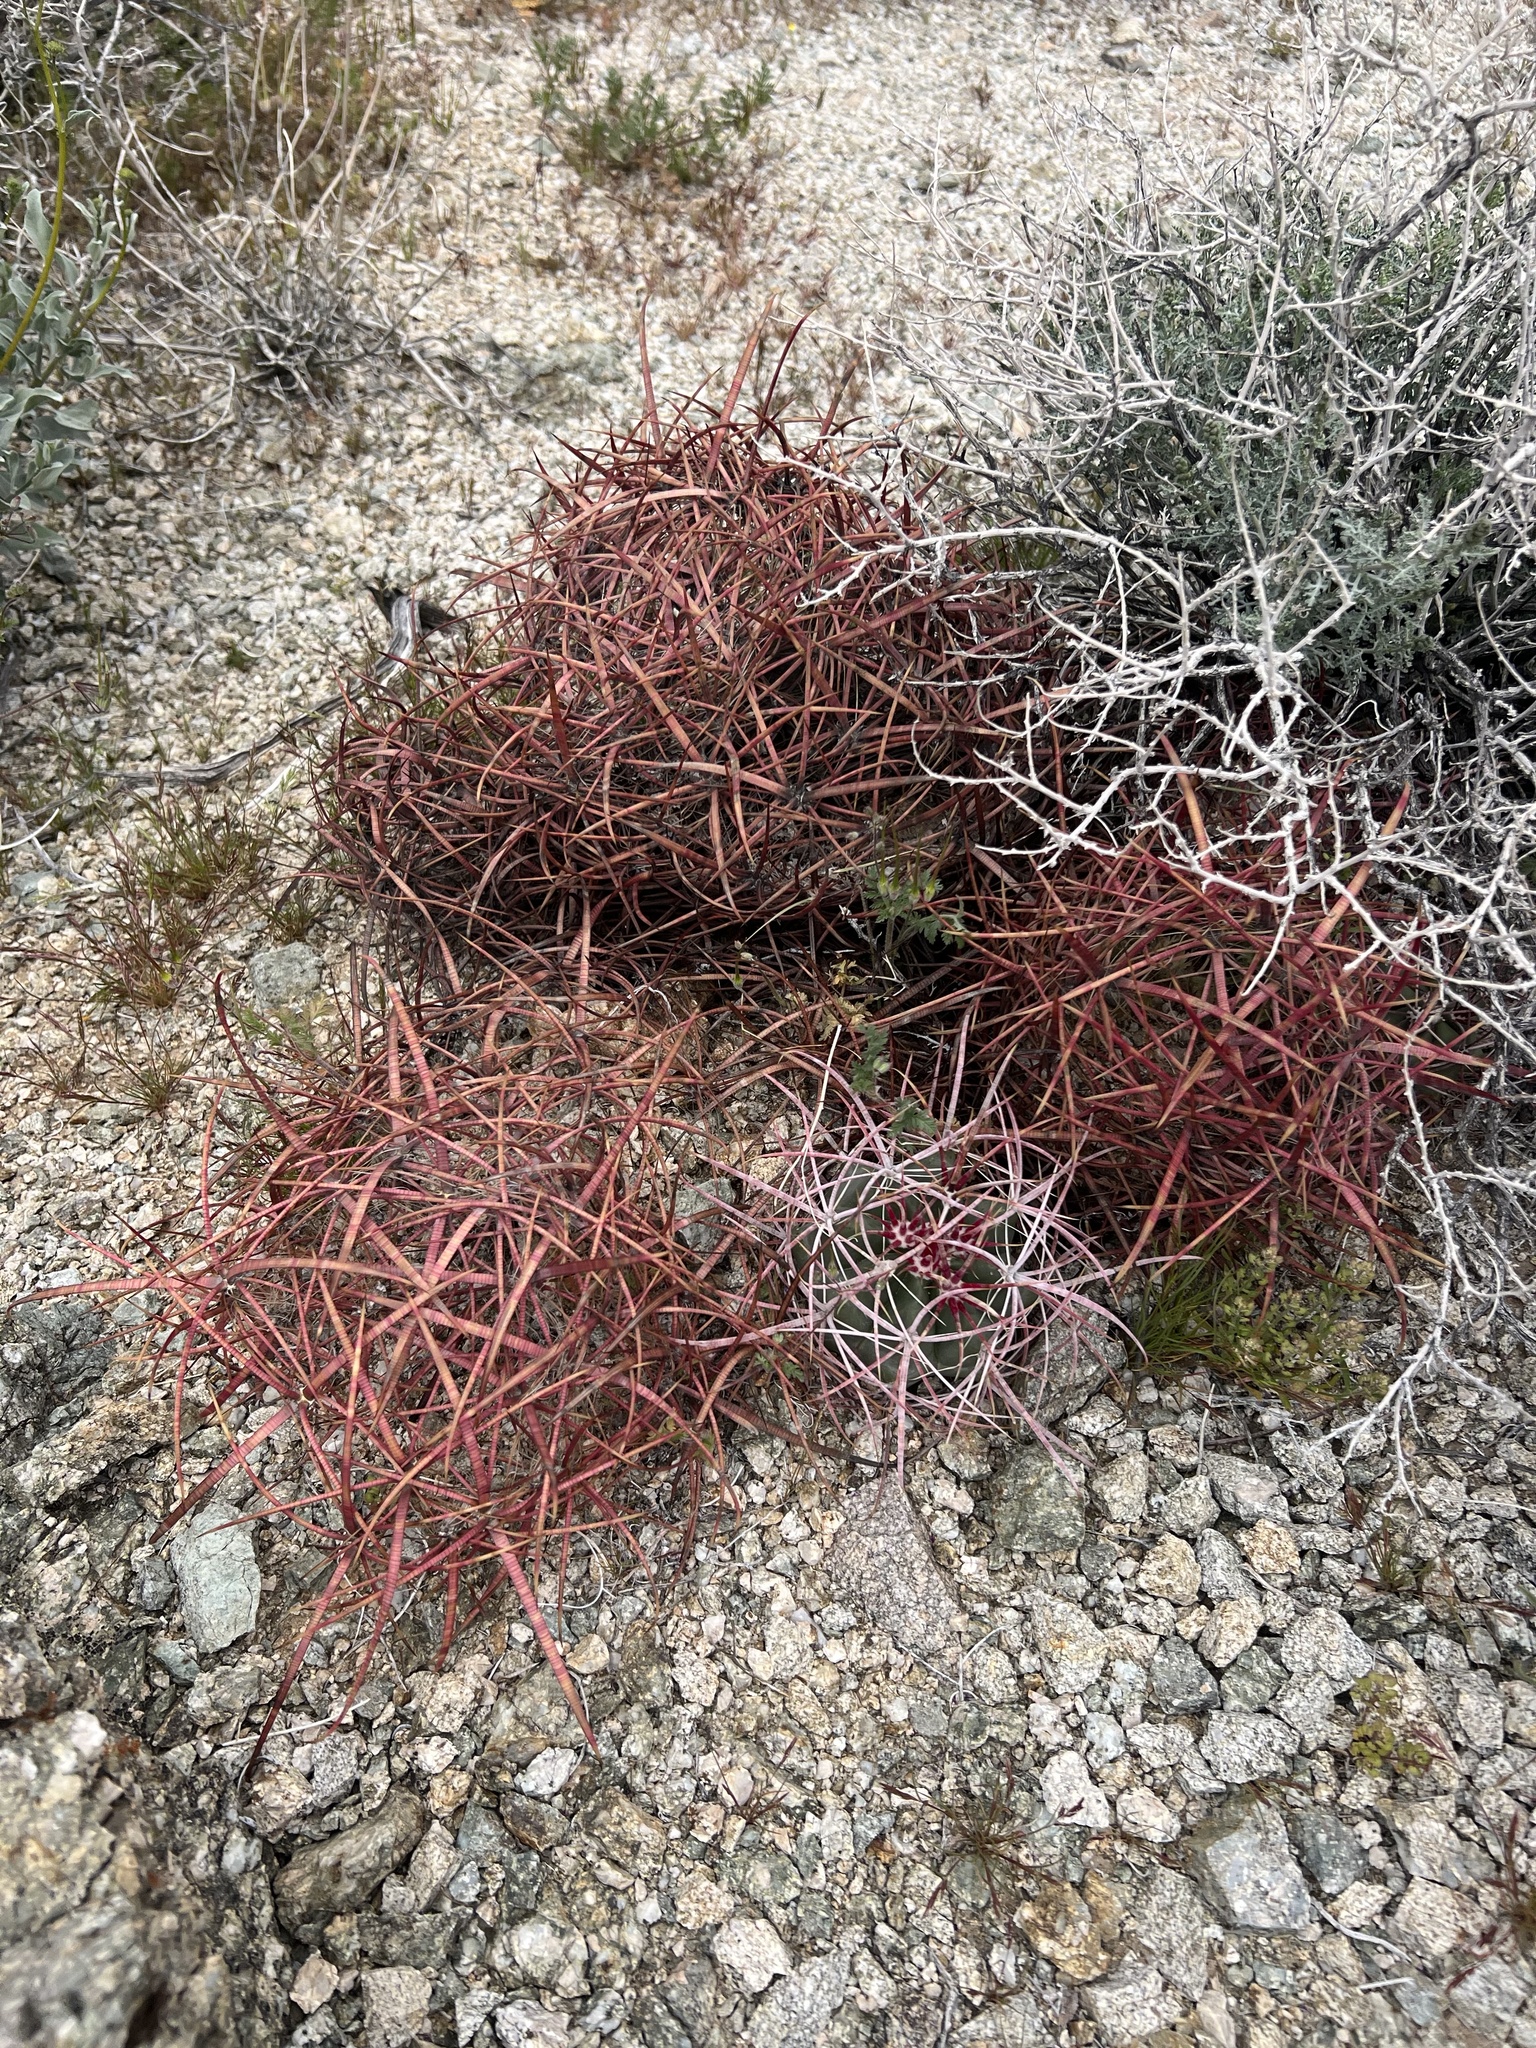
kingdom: Plantae
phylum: Tracheophyta
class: Magnoliopsida
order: Caryophyllales
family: Cactaceae
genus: Ferocactus
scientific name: Ferocactus cylindraceus
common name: California barrel cactus
